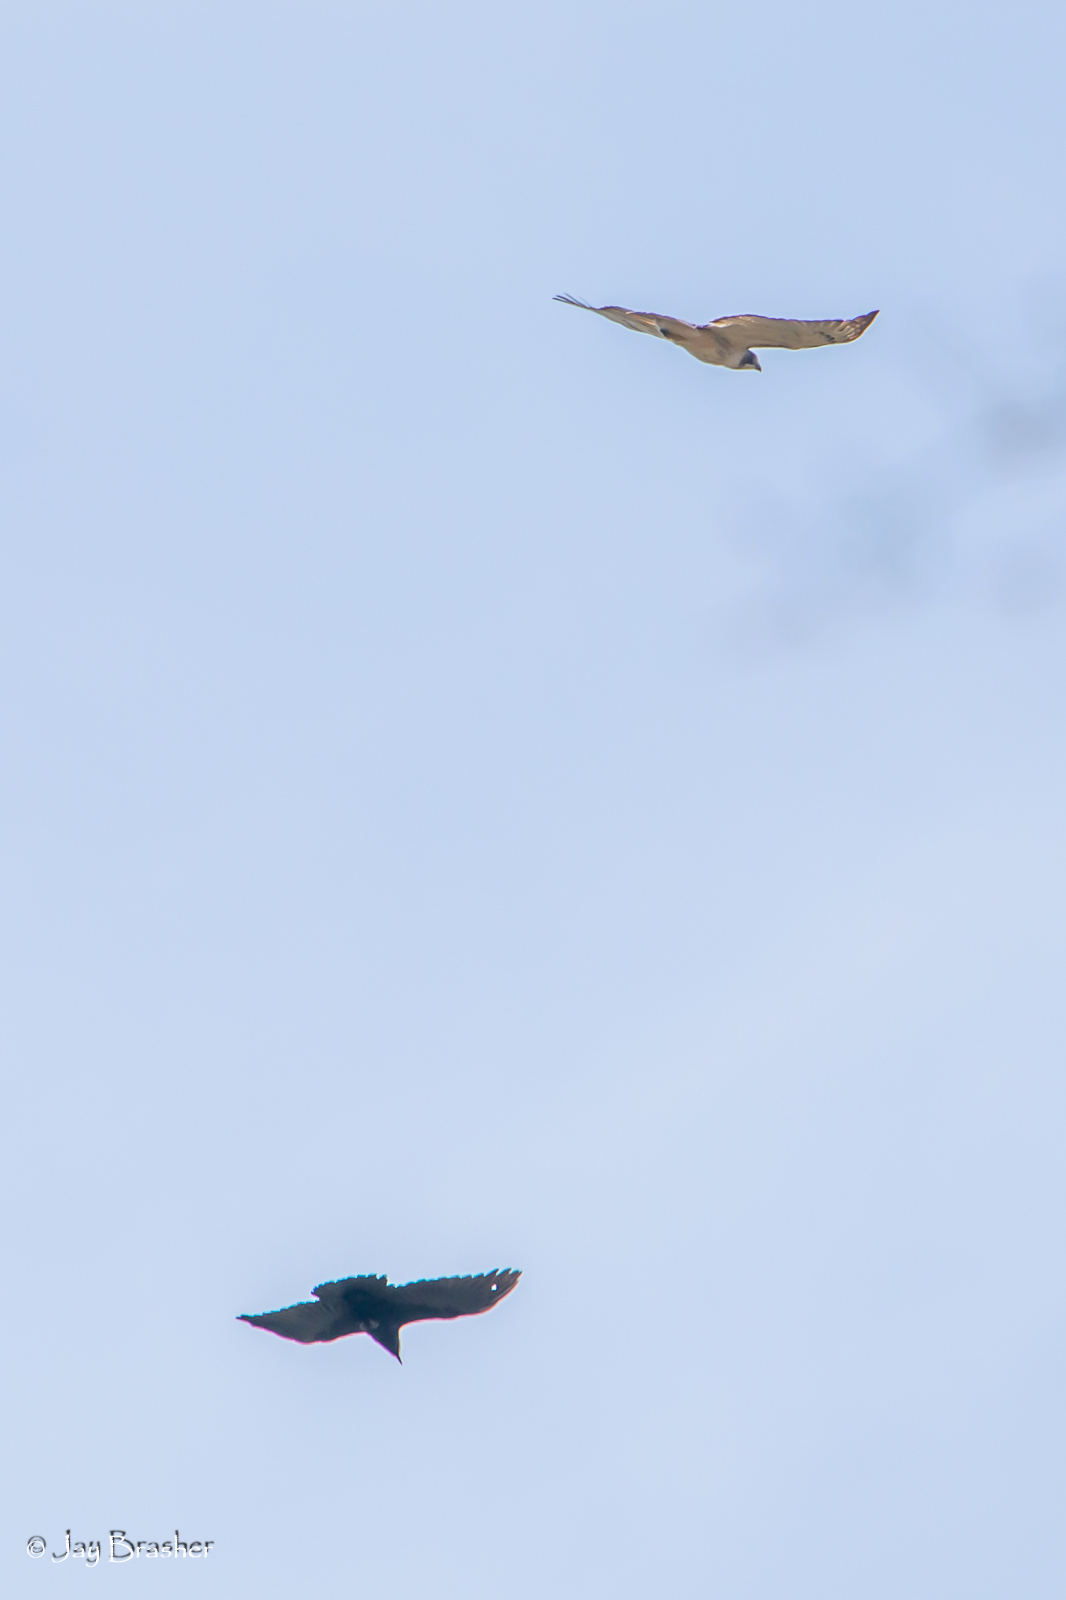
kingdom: Animalia
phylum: Chordata
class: Aves
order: Passeriformes
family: Corvidae
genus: Corvus
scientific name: Corvus ossifragus
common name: Fish crow
